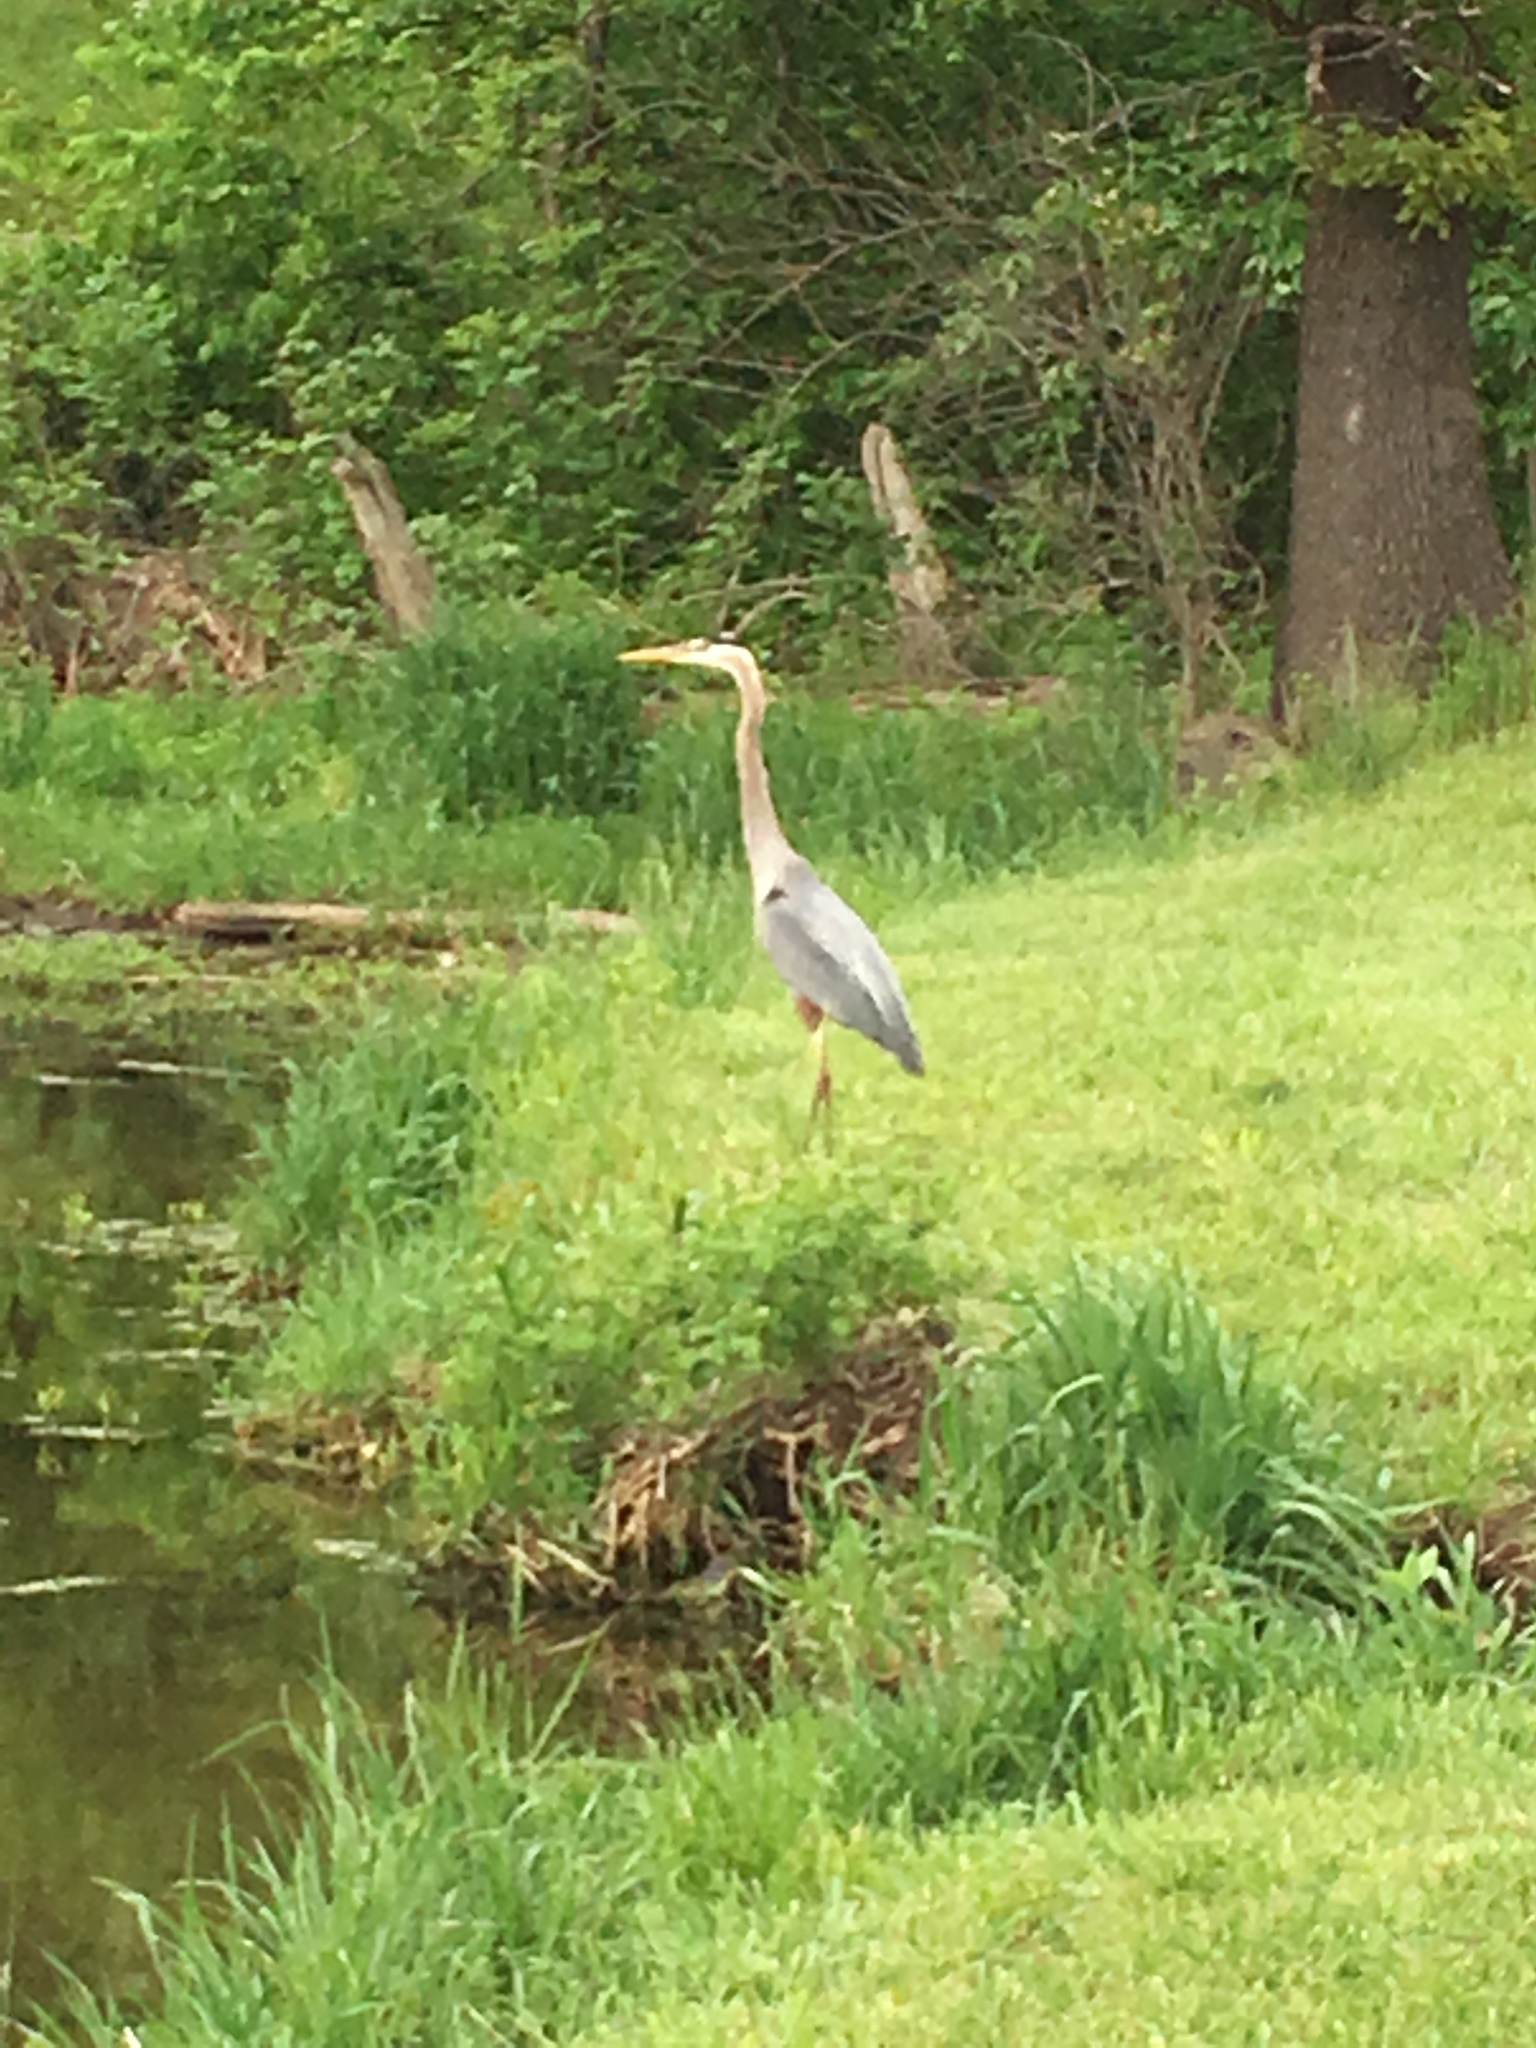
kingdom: Animalia
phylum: Chordata
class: Aves
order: Pelecaniformes
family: Ardeidae
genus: Ardea
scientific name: Ardea herodias
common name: Great blue heron
